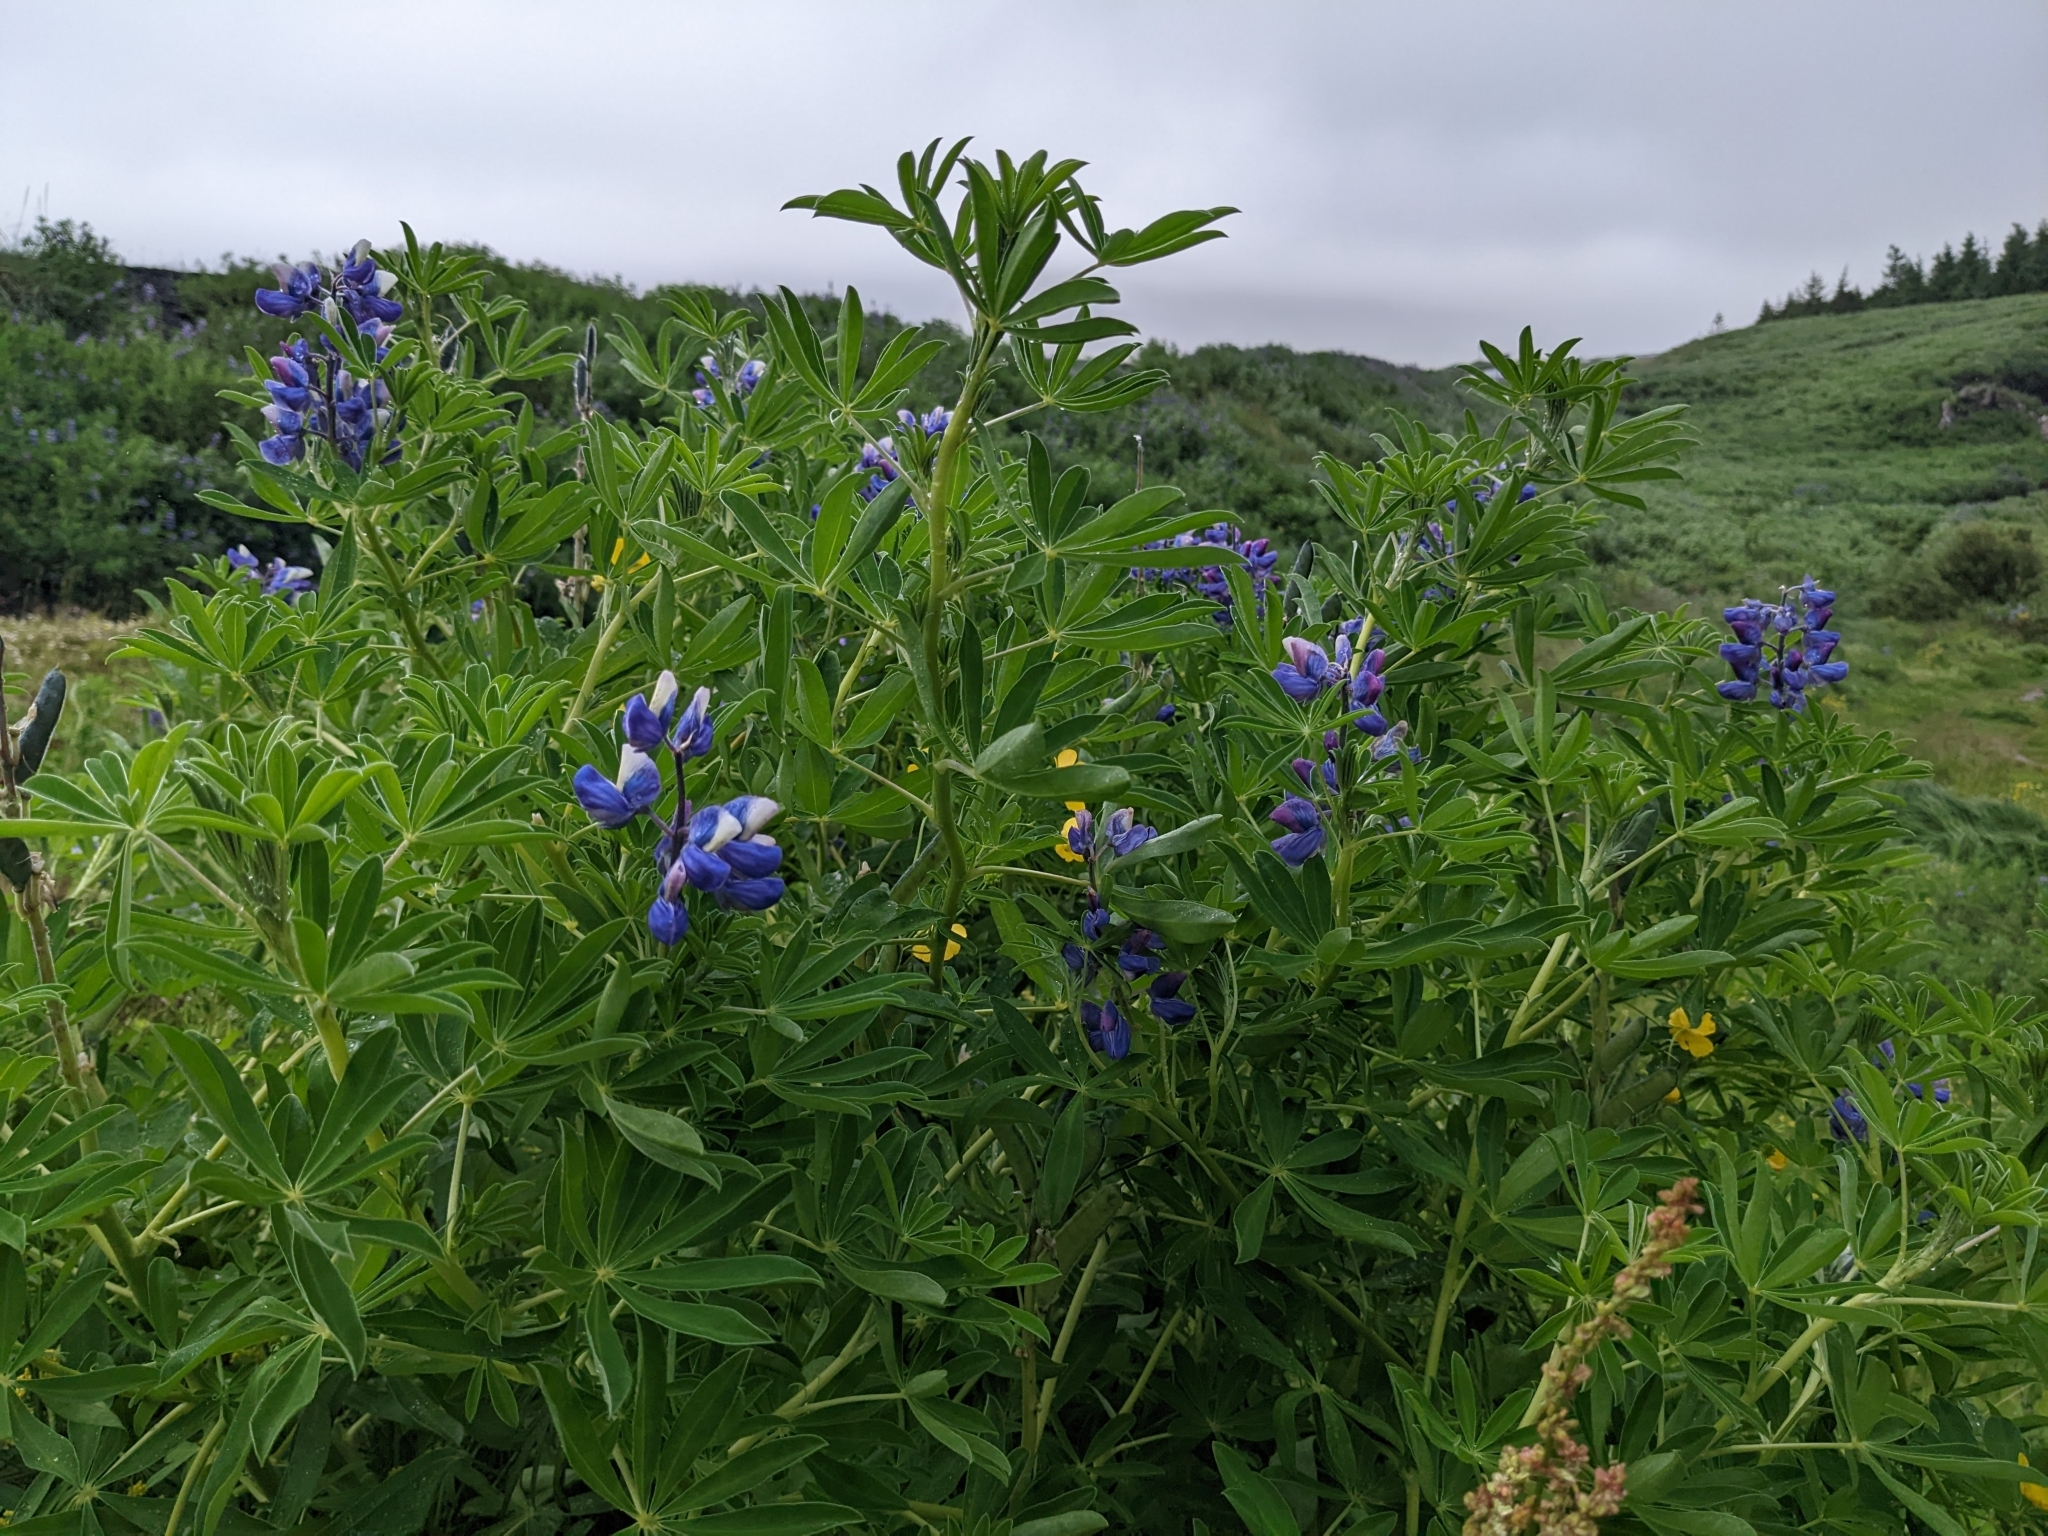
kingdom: Plantae
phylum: Tracheophyta
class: Magnoliopsida
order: Fabales
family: Fabaceae
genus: Lupinus
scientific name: Lupinus nootkatensis
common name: Nootka lupine
